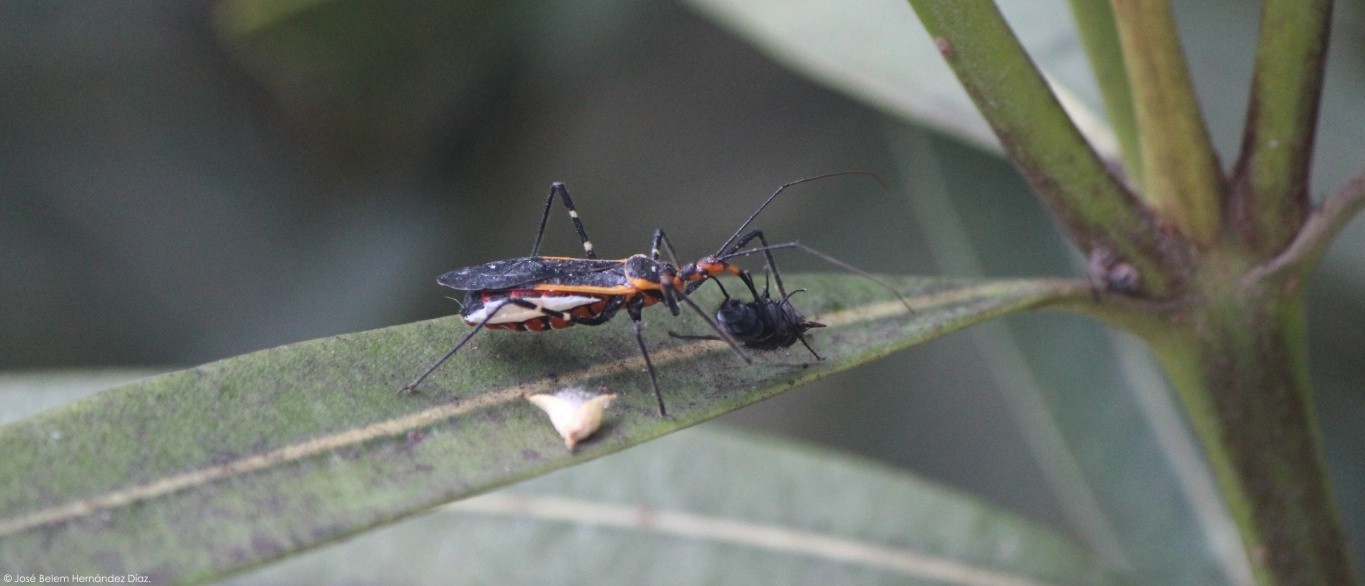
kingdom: Animalia
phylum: Arthropoda
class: Insecta
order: Hemiptera
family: Reduviidae
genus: Zelus
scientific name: Zelus longipes
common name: Milkweed assassin bug
